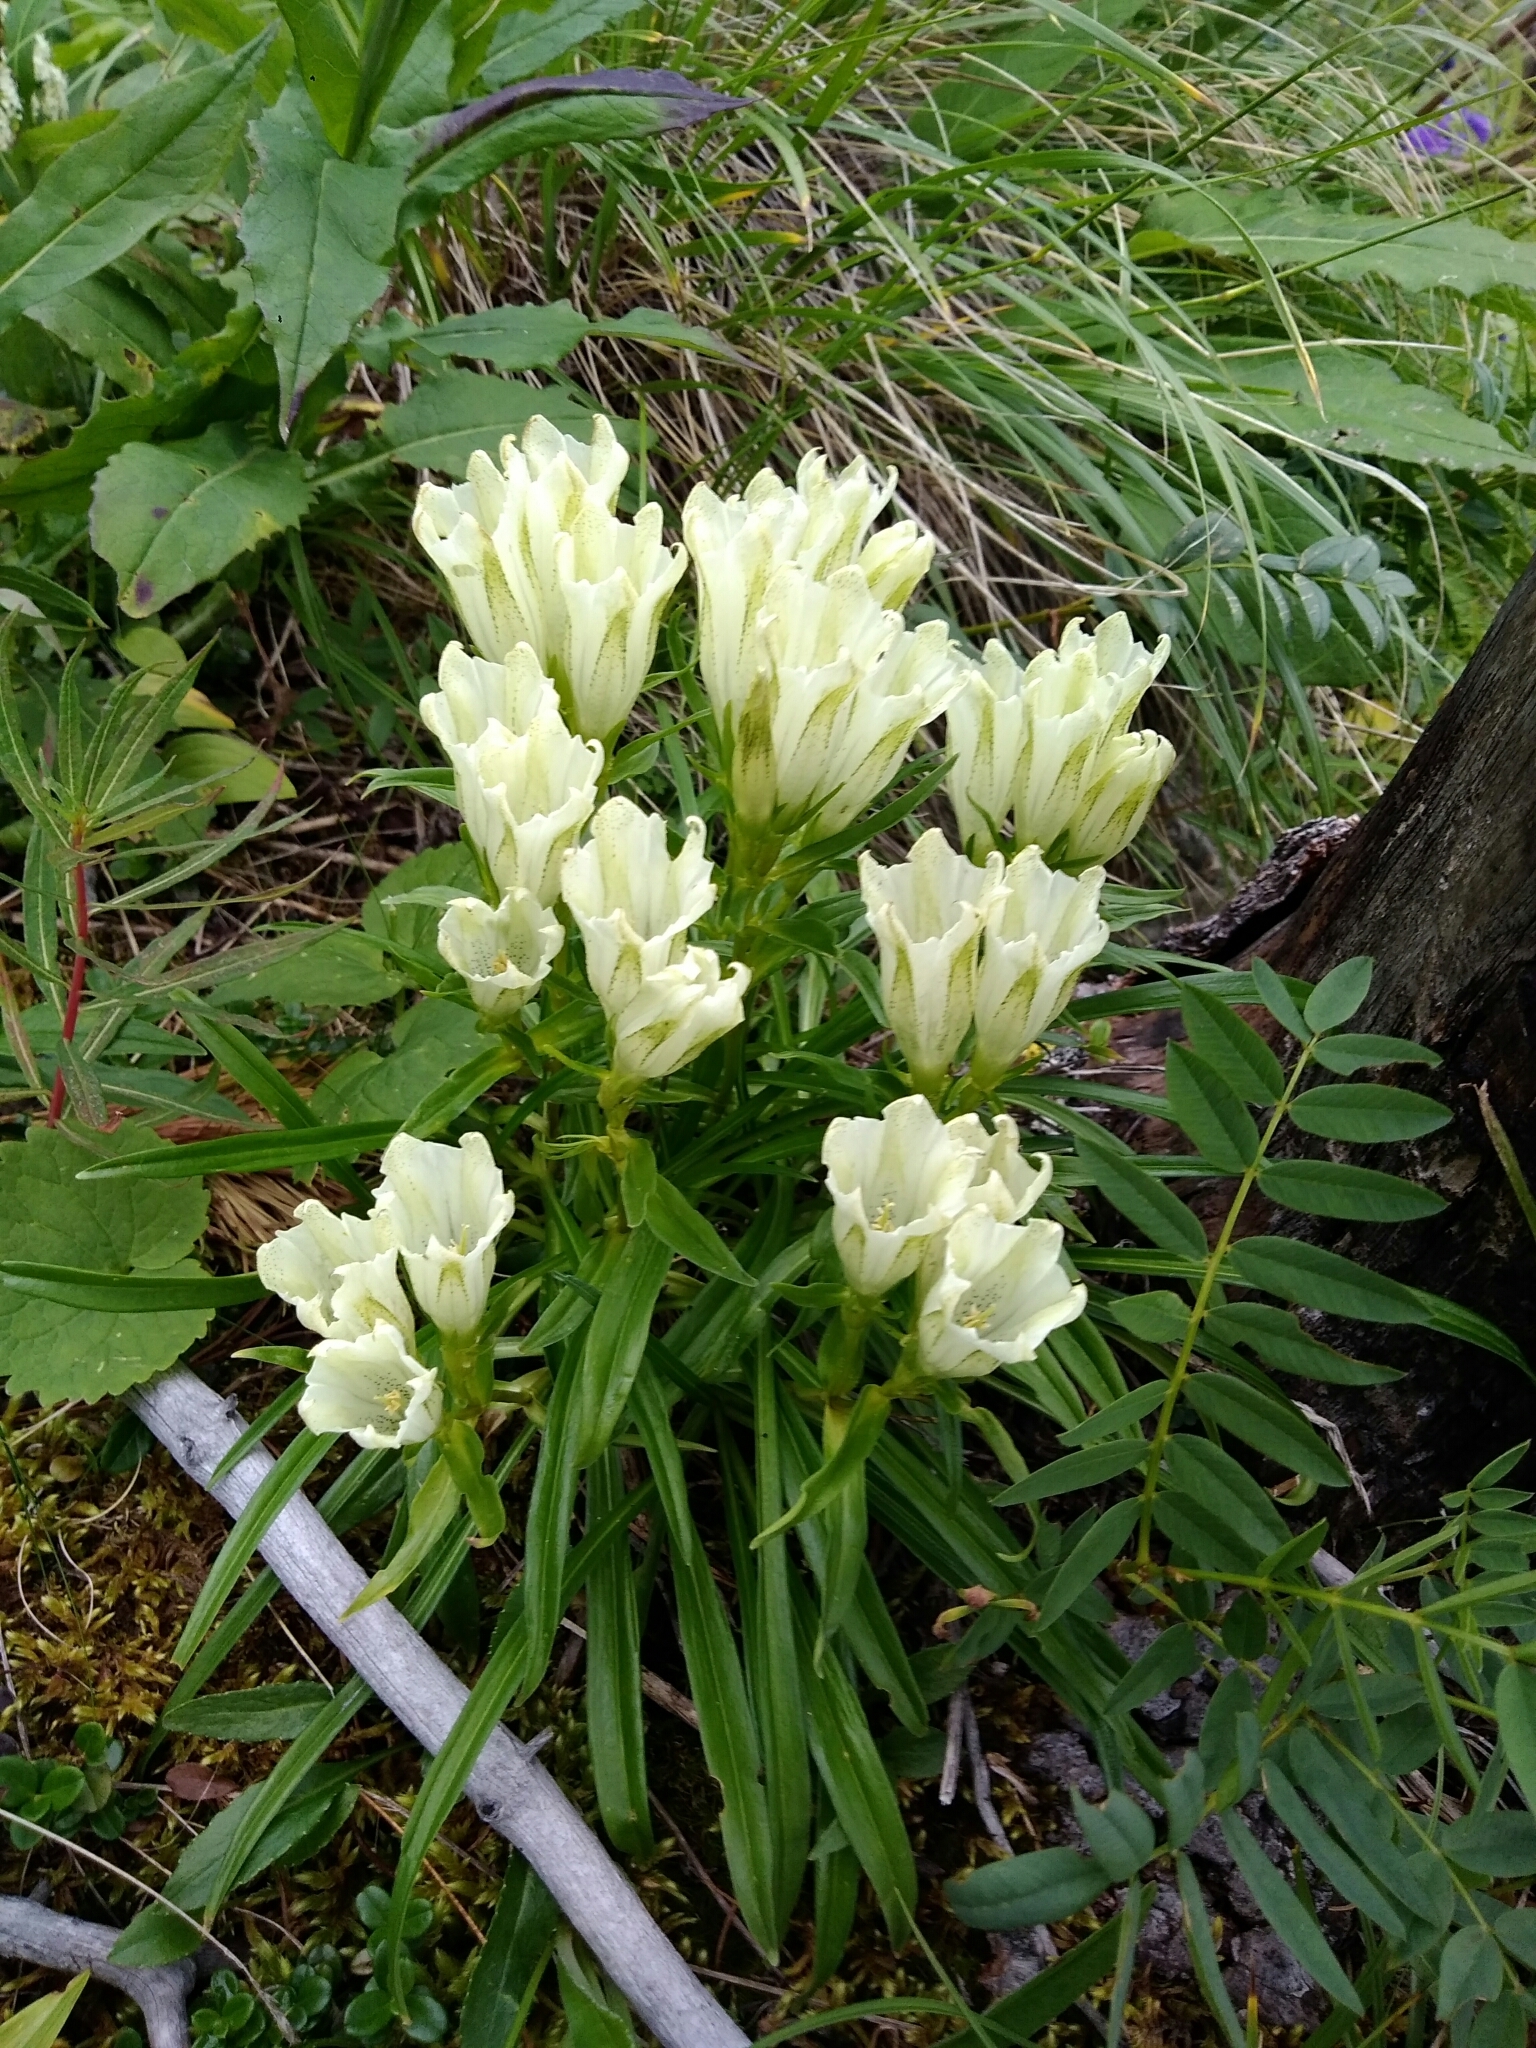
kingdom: Plantae
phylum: Tracheophyta
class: Magnoliopsida
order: Gentianales
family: Gentianaceae
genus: Gentiana
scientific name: Gentiana algida
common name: Arctic gentian
